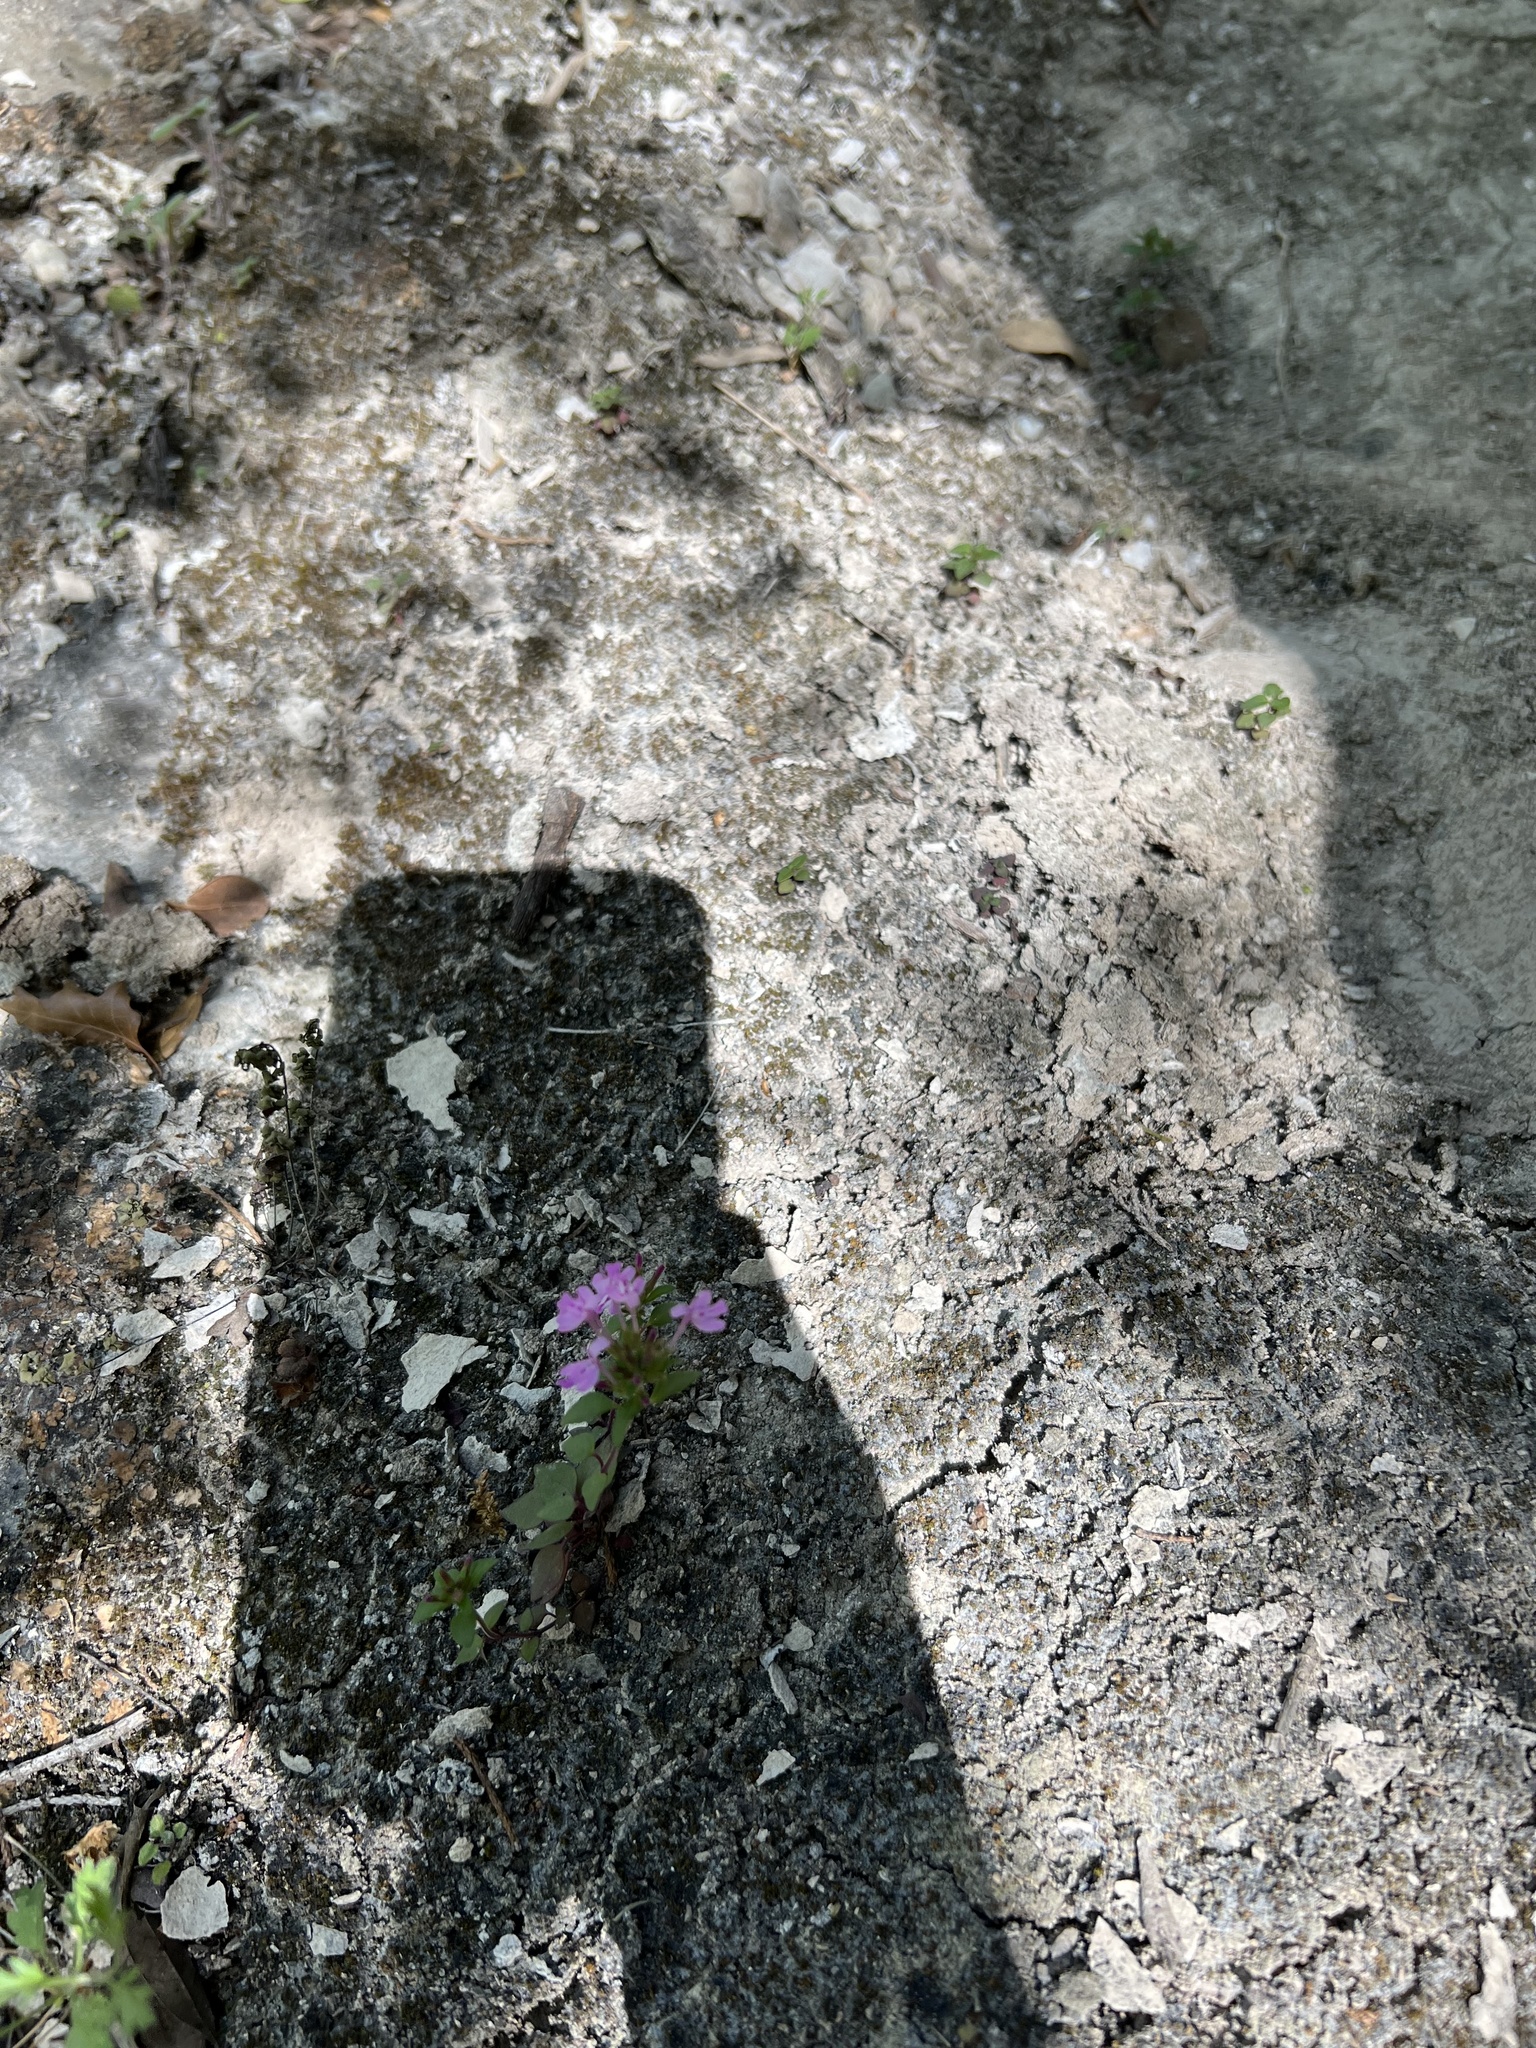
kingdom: Plantae
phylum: Tracheophyta
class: Magnoliopsida
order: Lamiales
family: Lamiaceae
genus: Hedeoma
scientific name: Hedeoma acinoides
